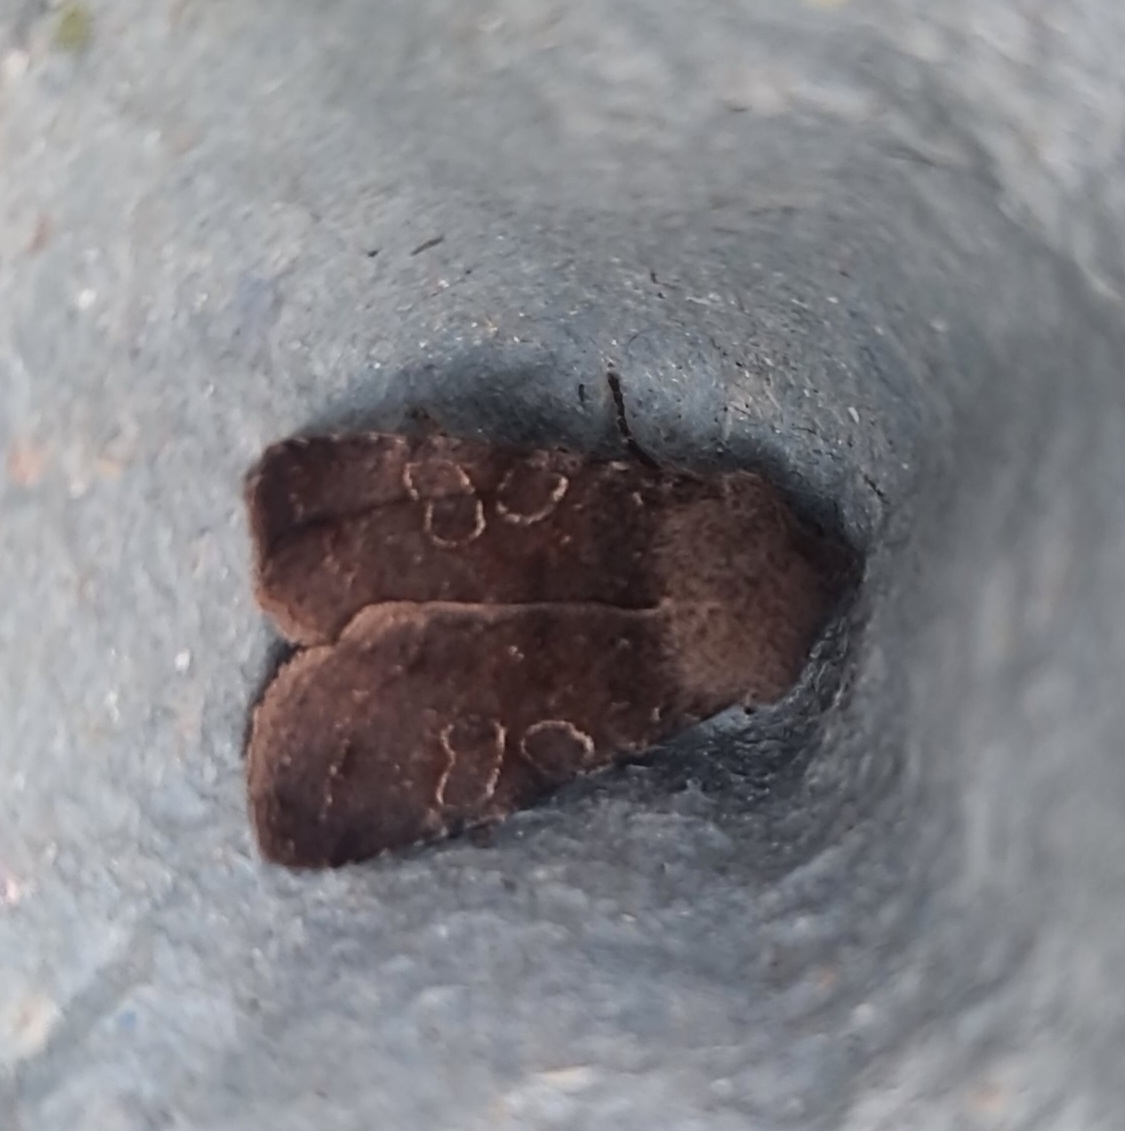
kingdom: Animalia
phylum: Arthropoda
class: Insecta
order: Lepidoptera
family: Noctuidae
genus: Orthosia
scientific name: Orthosia incerta
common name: Clouded drab
